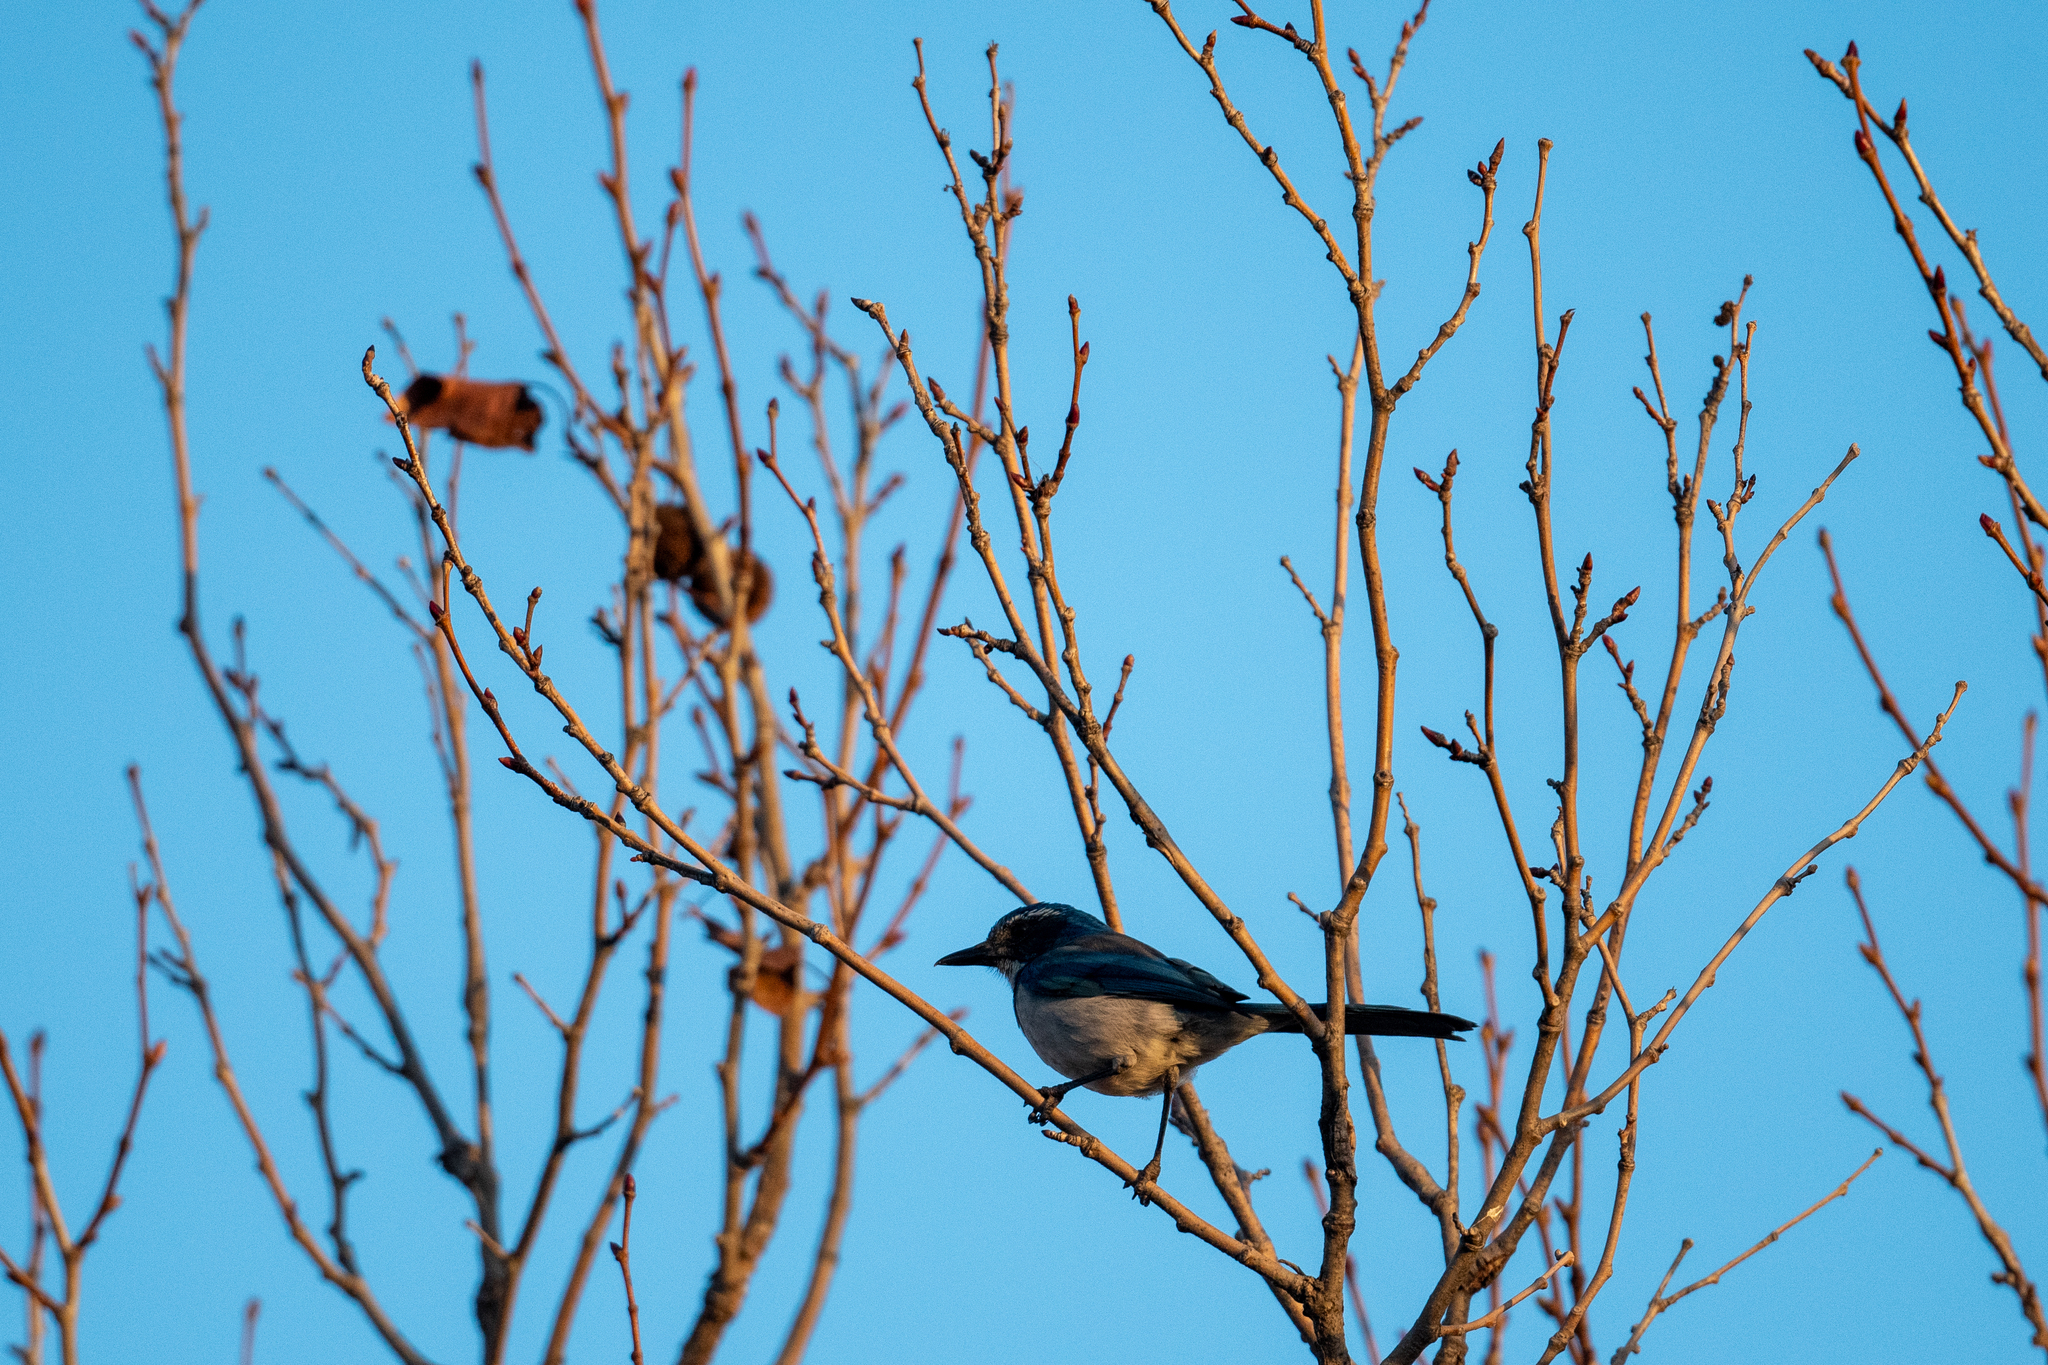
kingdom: Animalia
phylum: Chordata
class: Aves
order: Passeriformes
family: Corvidae
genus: Aphelocoma
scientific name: Aphelocoma californica
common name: California scrub-jay
